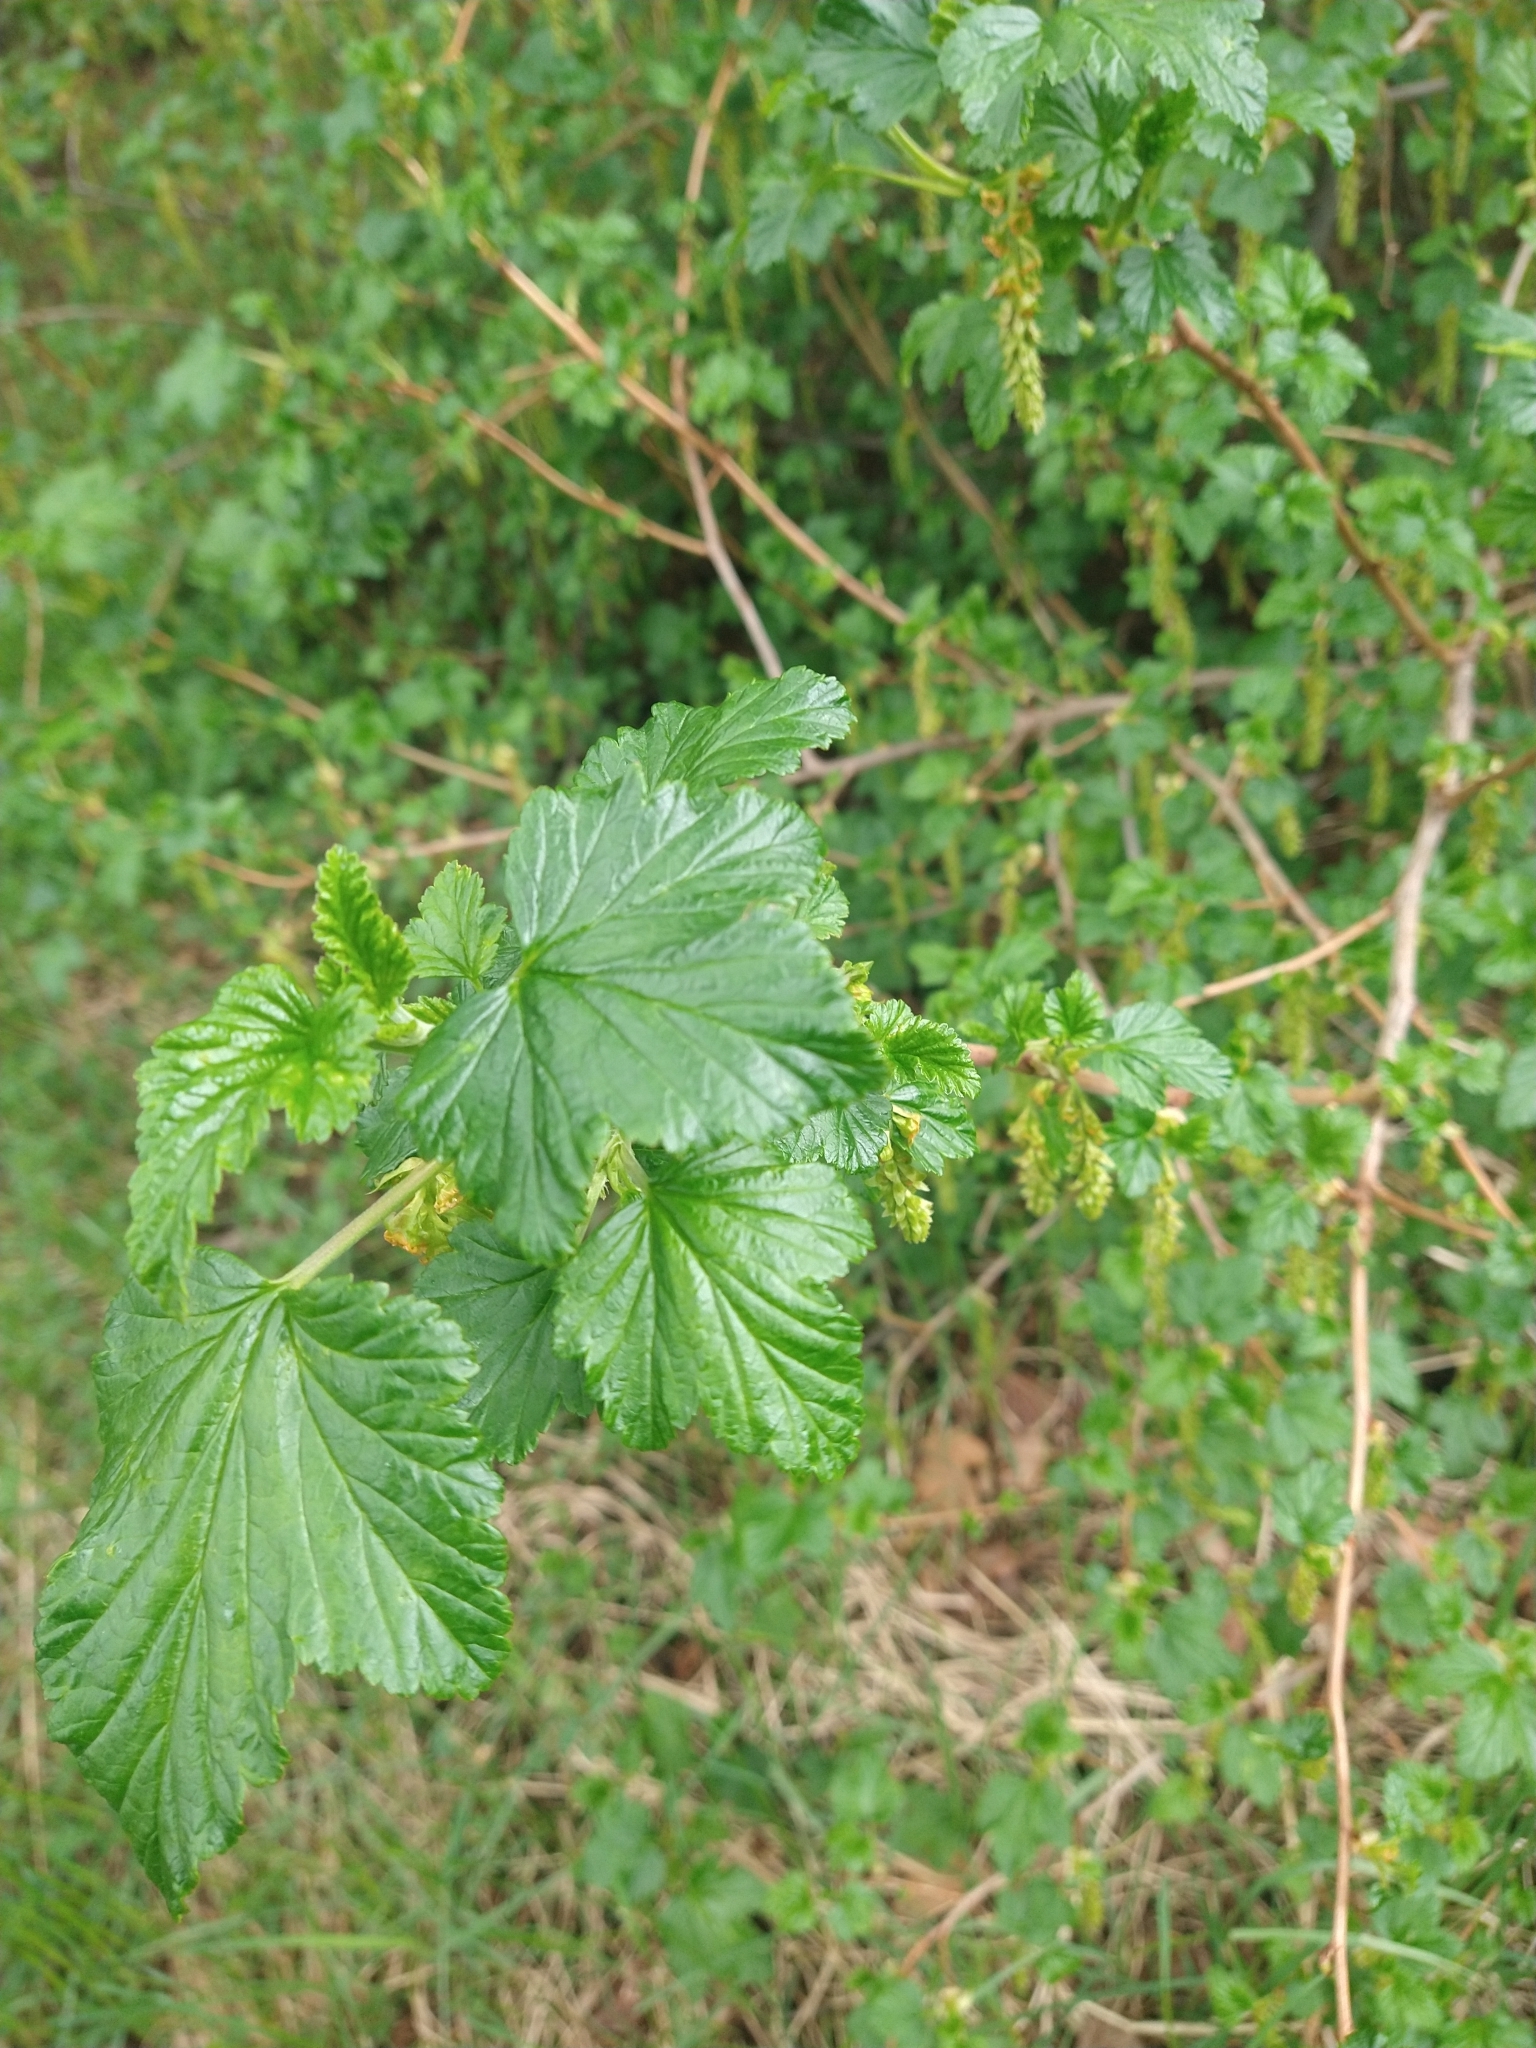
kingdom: Plantae
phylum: Tracheophyta
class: Magnoliopsida
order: Saxifragales
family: Grossulariaceae
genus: Ribes
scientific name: Ribes magellanicum
